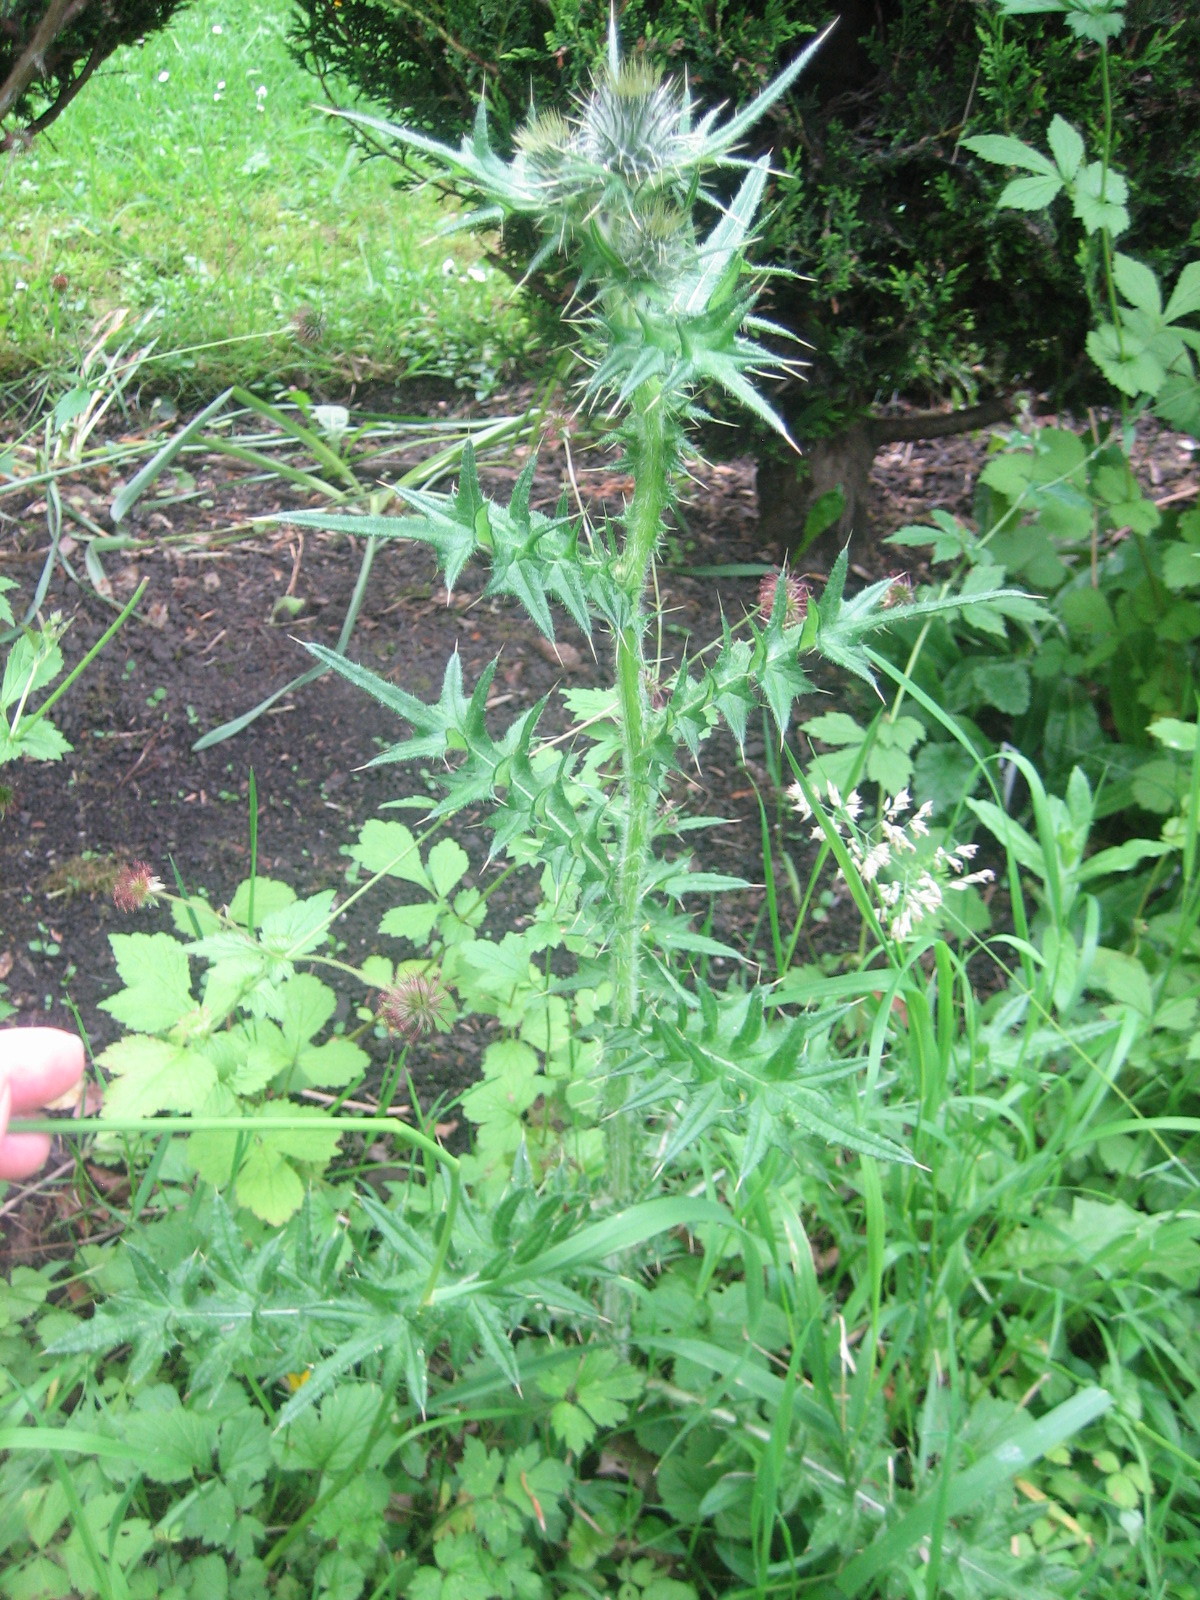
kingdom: Plantae
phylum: Tracheophyta
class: Magnoliopsida
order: Asterales
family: Asteraceae
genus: Cirsium
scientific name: Cirsium vulgare
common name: Bull thistle
